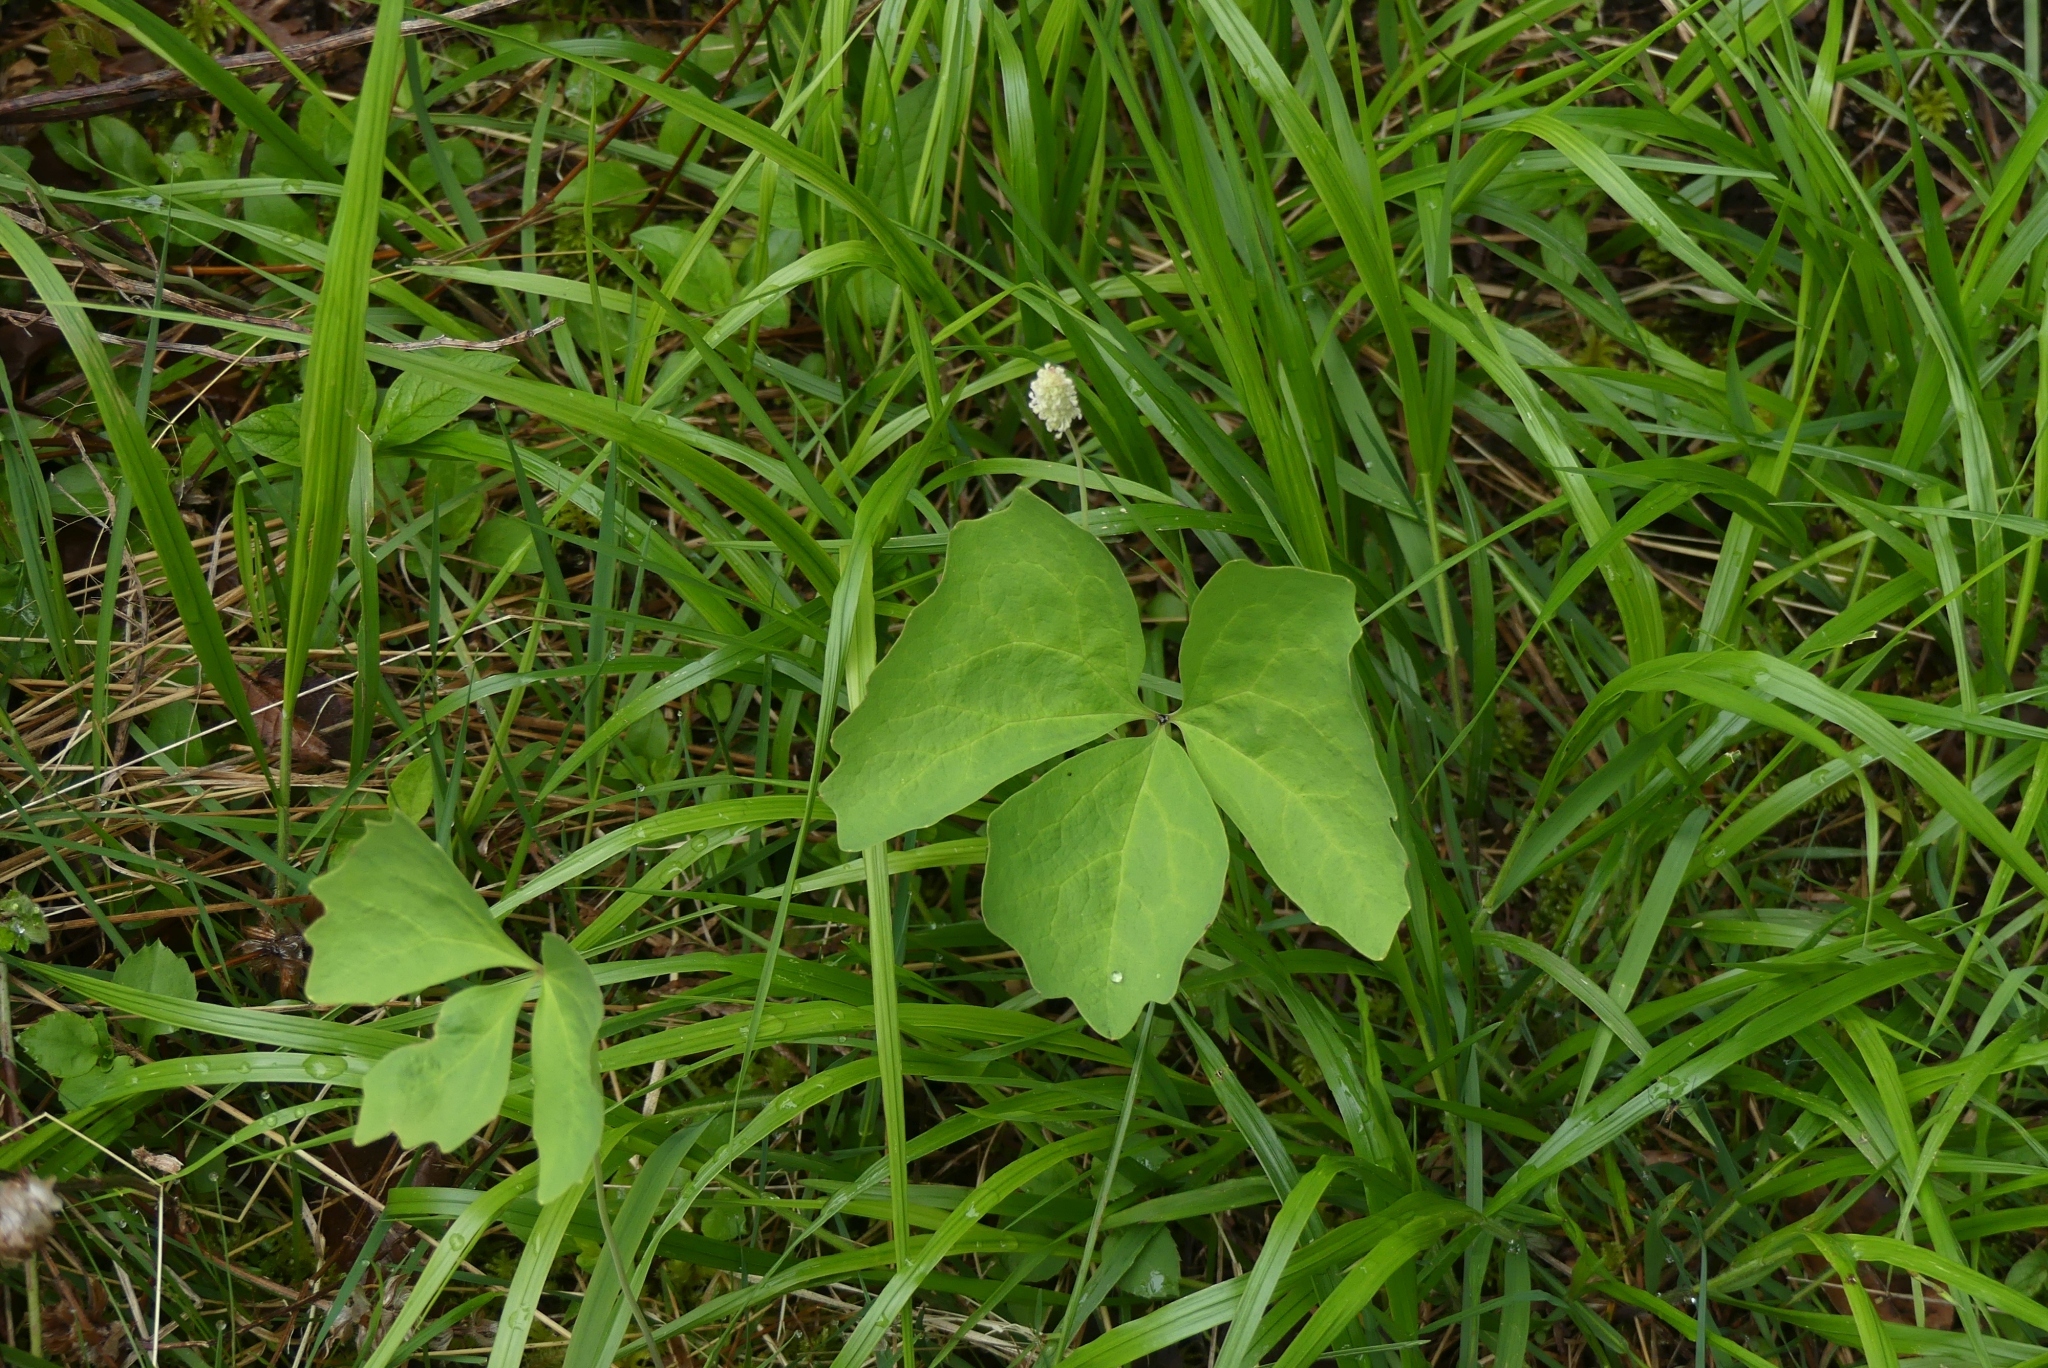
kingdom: Plantae
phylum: Tracheophyta
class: Magnoliopsida
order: Ranunculales
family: Berberidaceae
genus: Achlys
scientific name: Achlys triphylla
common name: Vanilla-leaf
